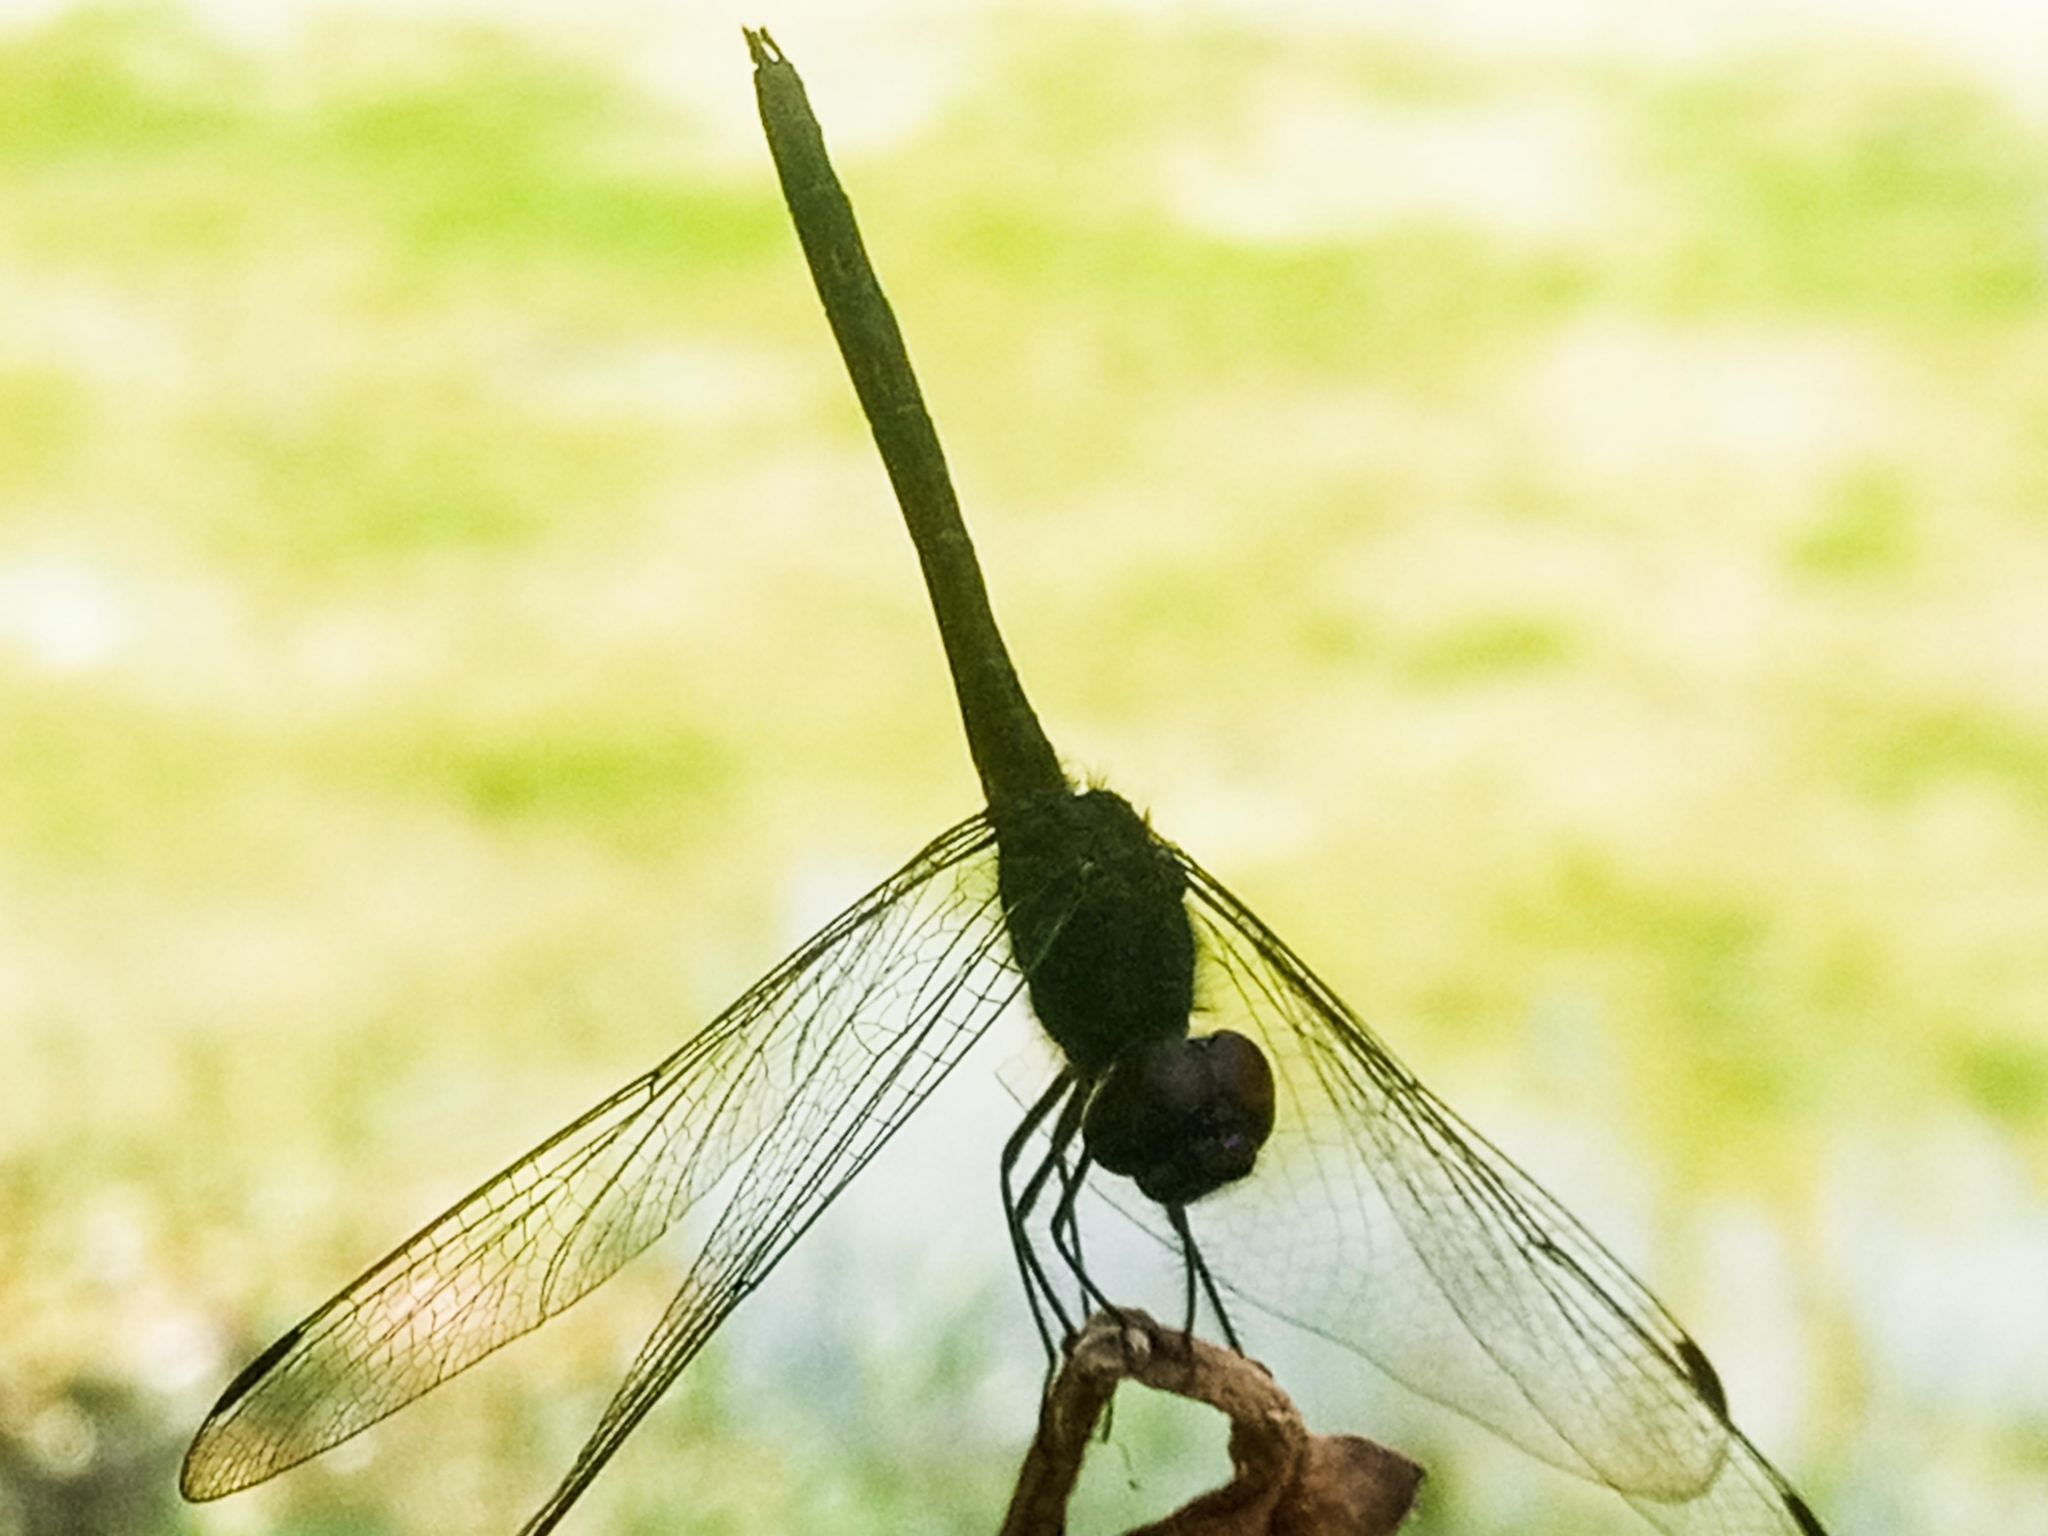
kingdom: Animalia
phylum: Arthropoda
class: Insecta
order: Odonata
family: Libellulidae
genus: Trithemis
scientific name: Trithemis grouti
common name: Dark dropwing
